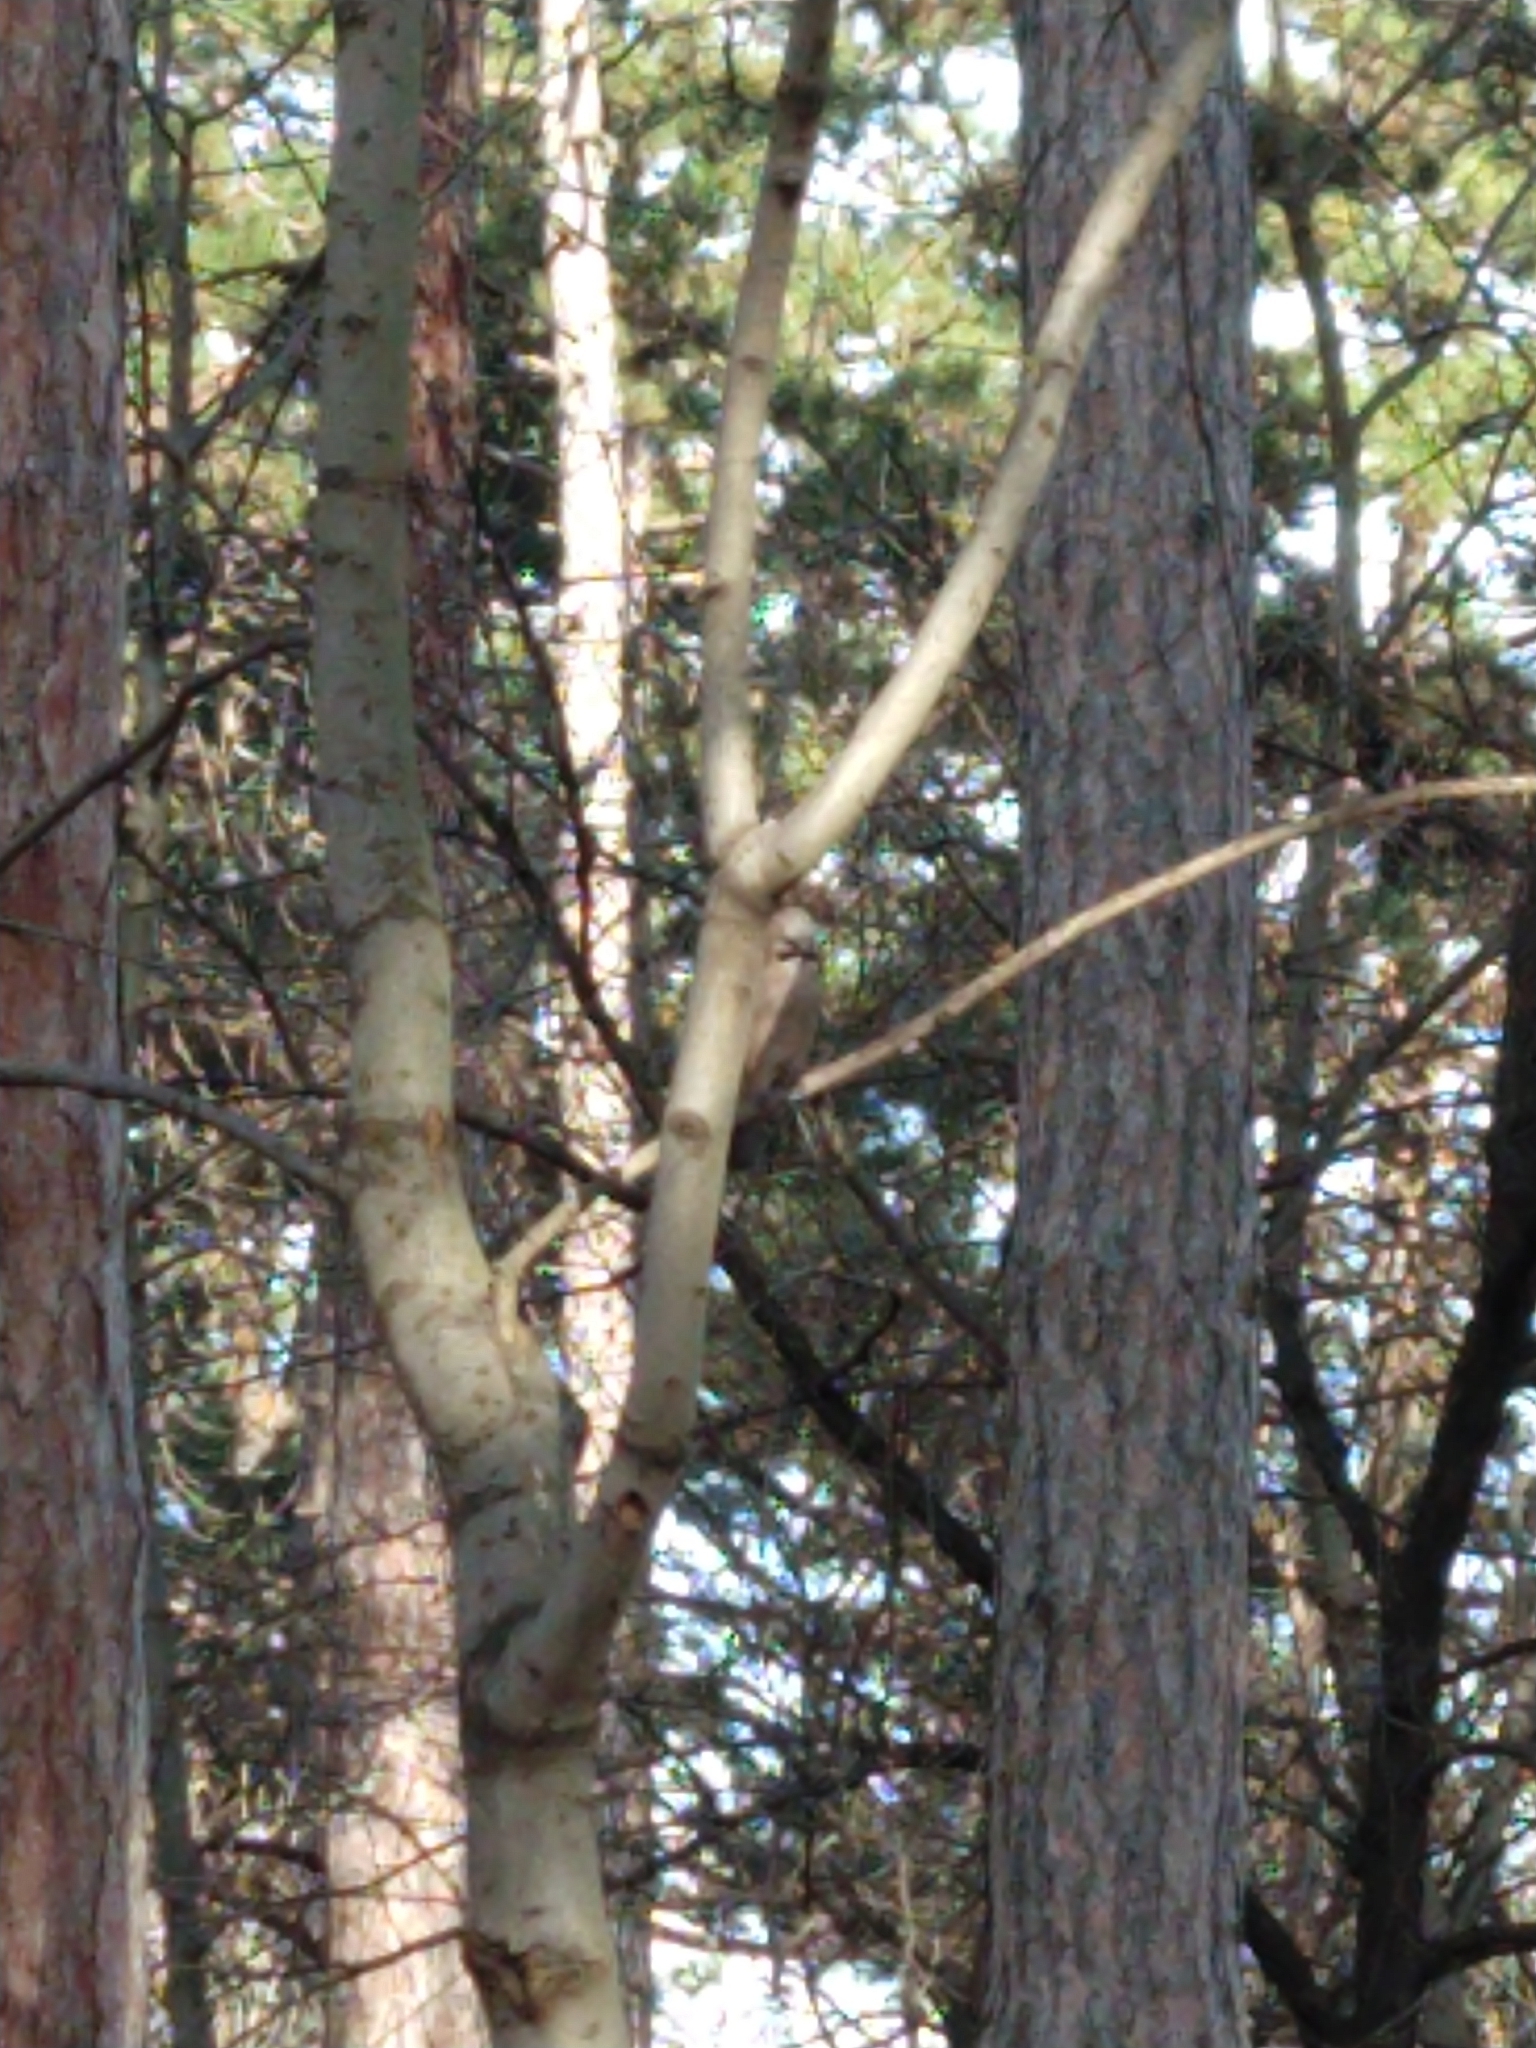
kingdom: Animalia
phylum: Chordata
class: Aves
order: Passeriformes
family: Corvidae
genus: Garrulus
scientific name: Garrulus glandarius
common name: Eurasian jay
